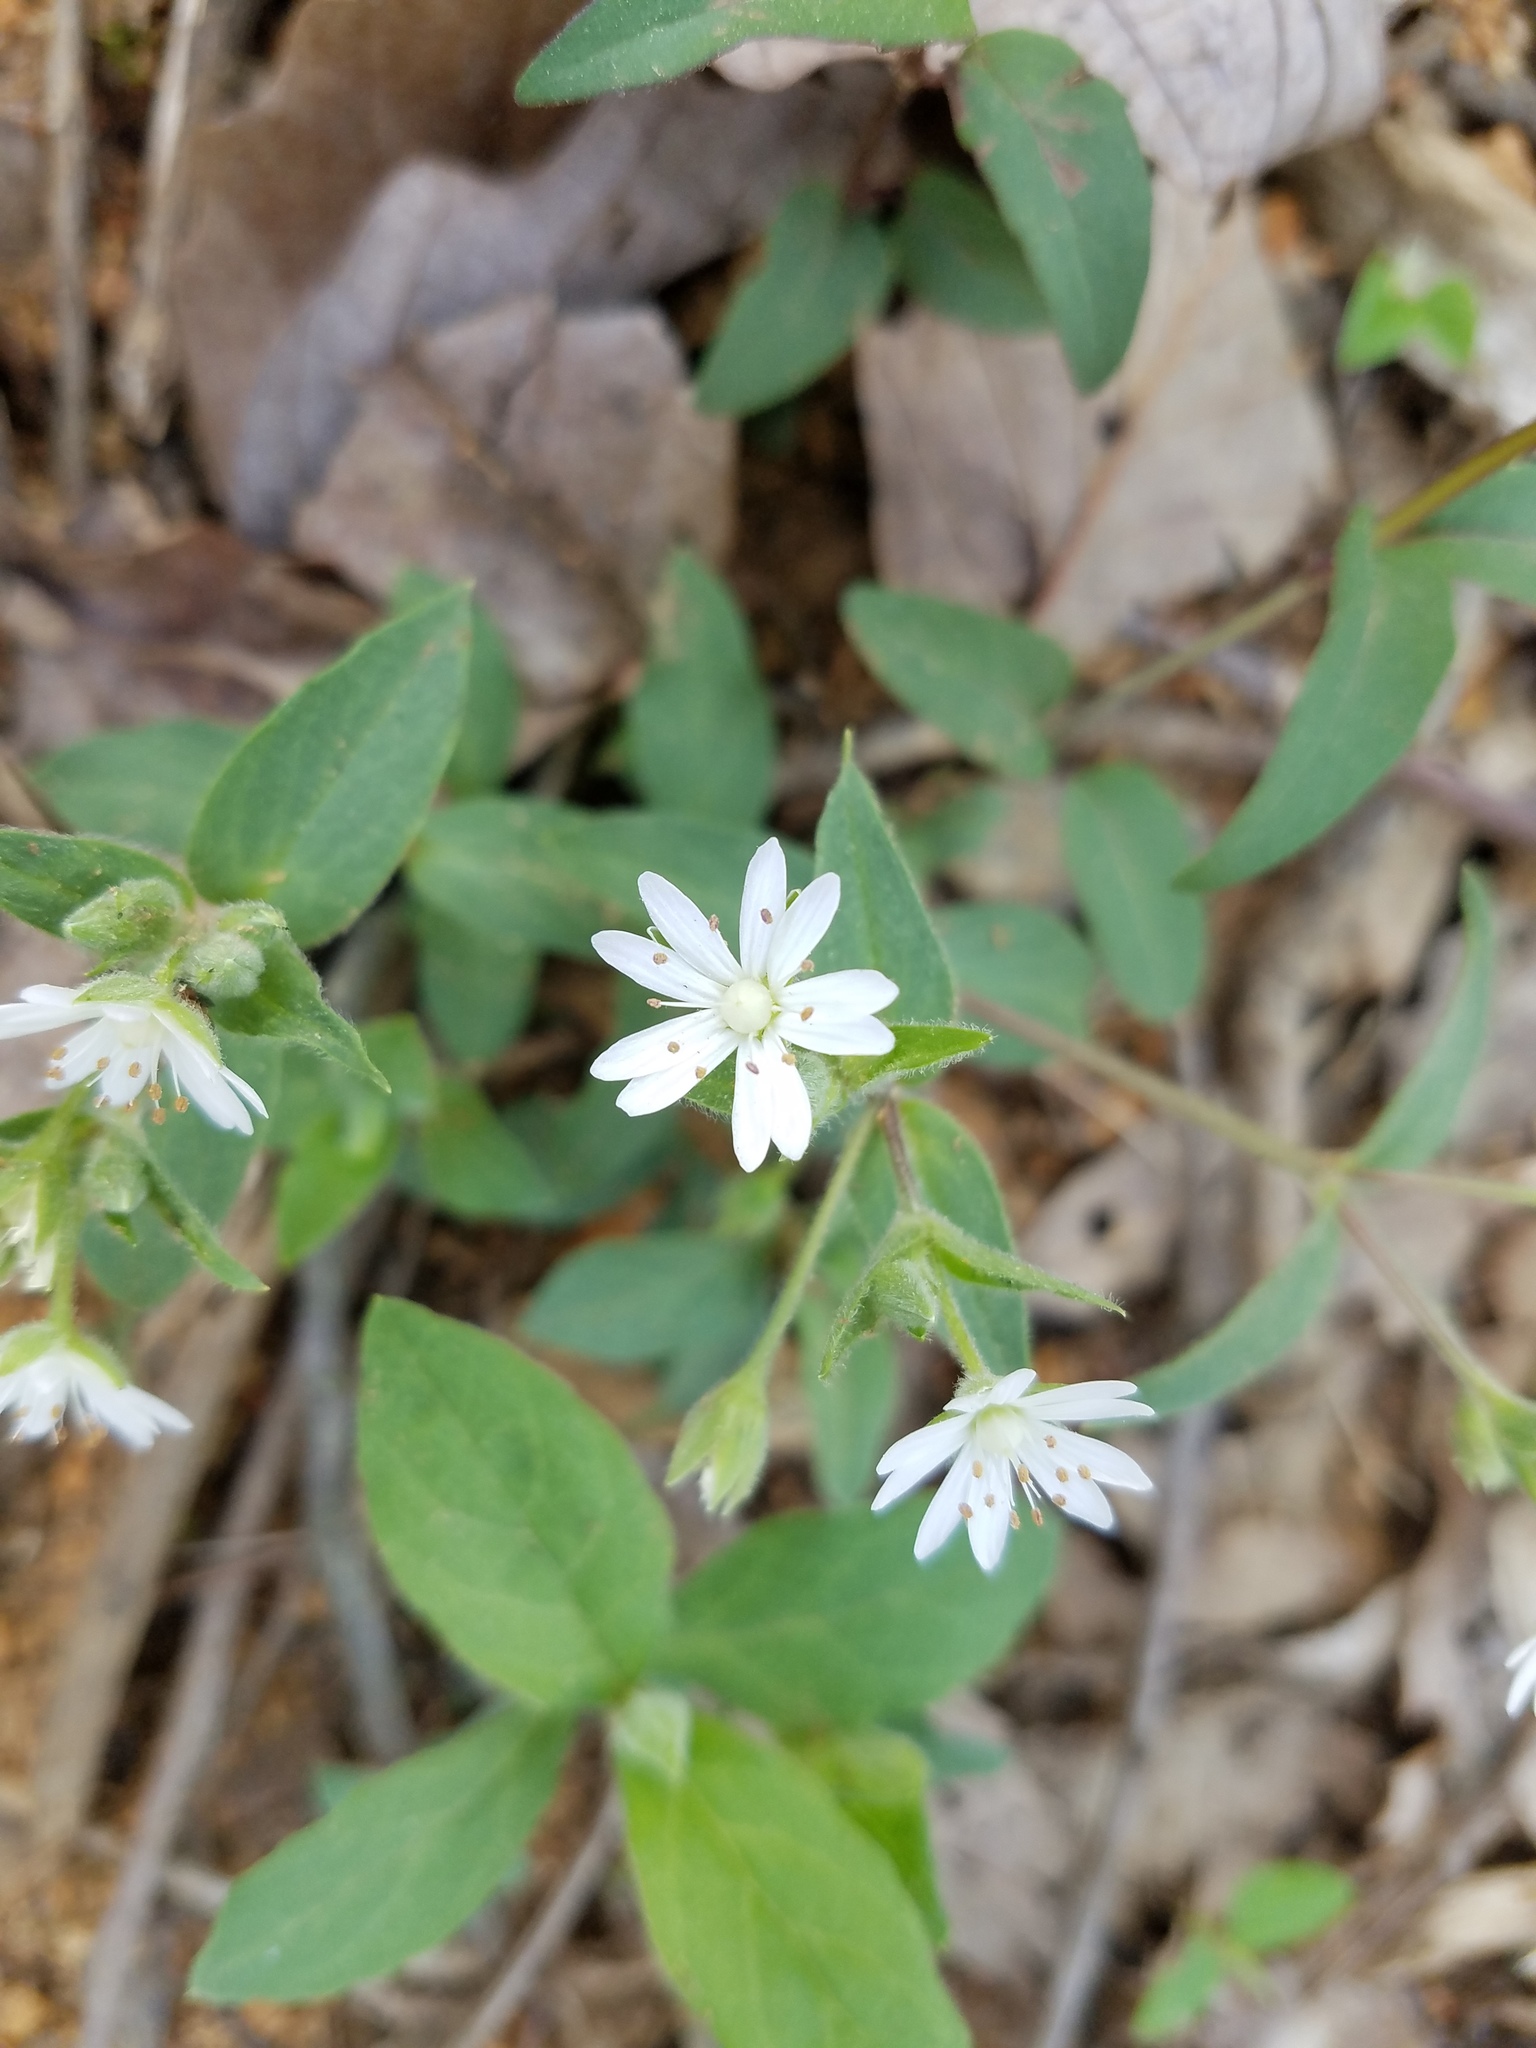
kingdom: Plantae
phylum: Tracheophyta
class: Magnoliopsida
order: Caryophyllales
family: Caryophyllaceae
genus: Stellaria
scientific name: Stellaria pubera
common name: Star chickweed
